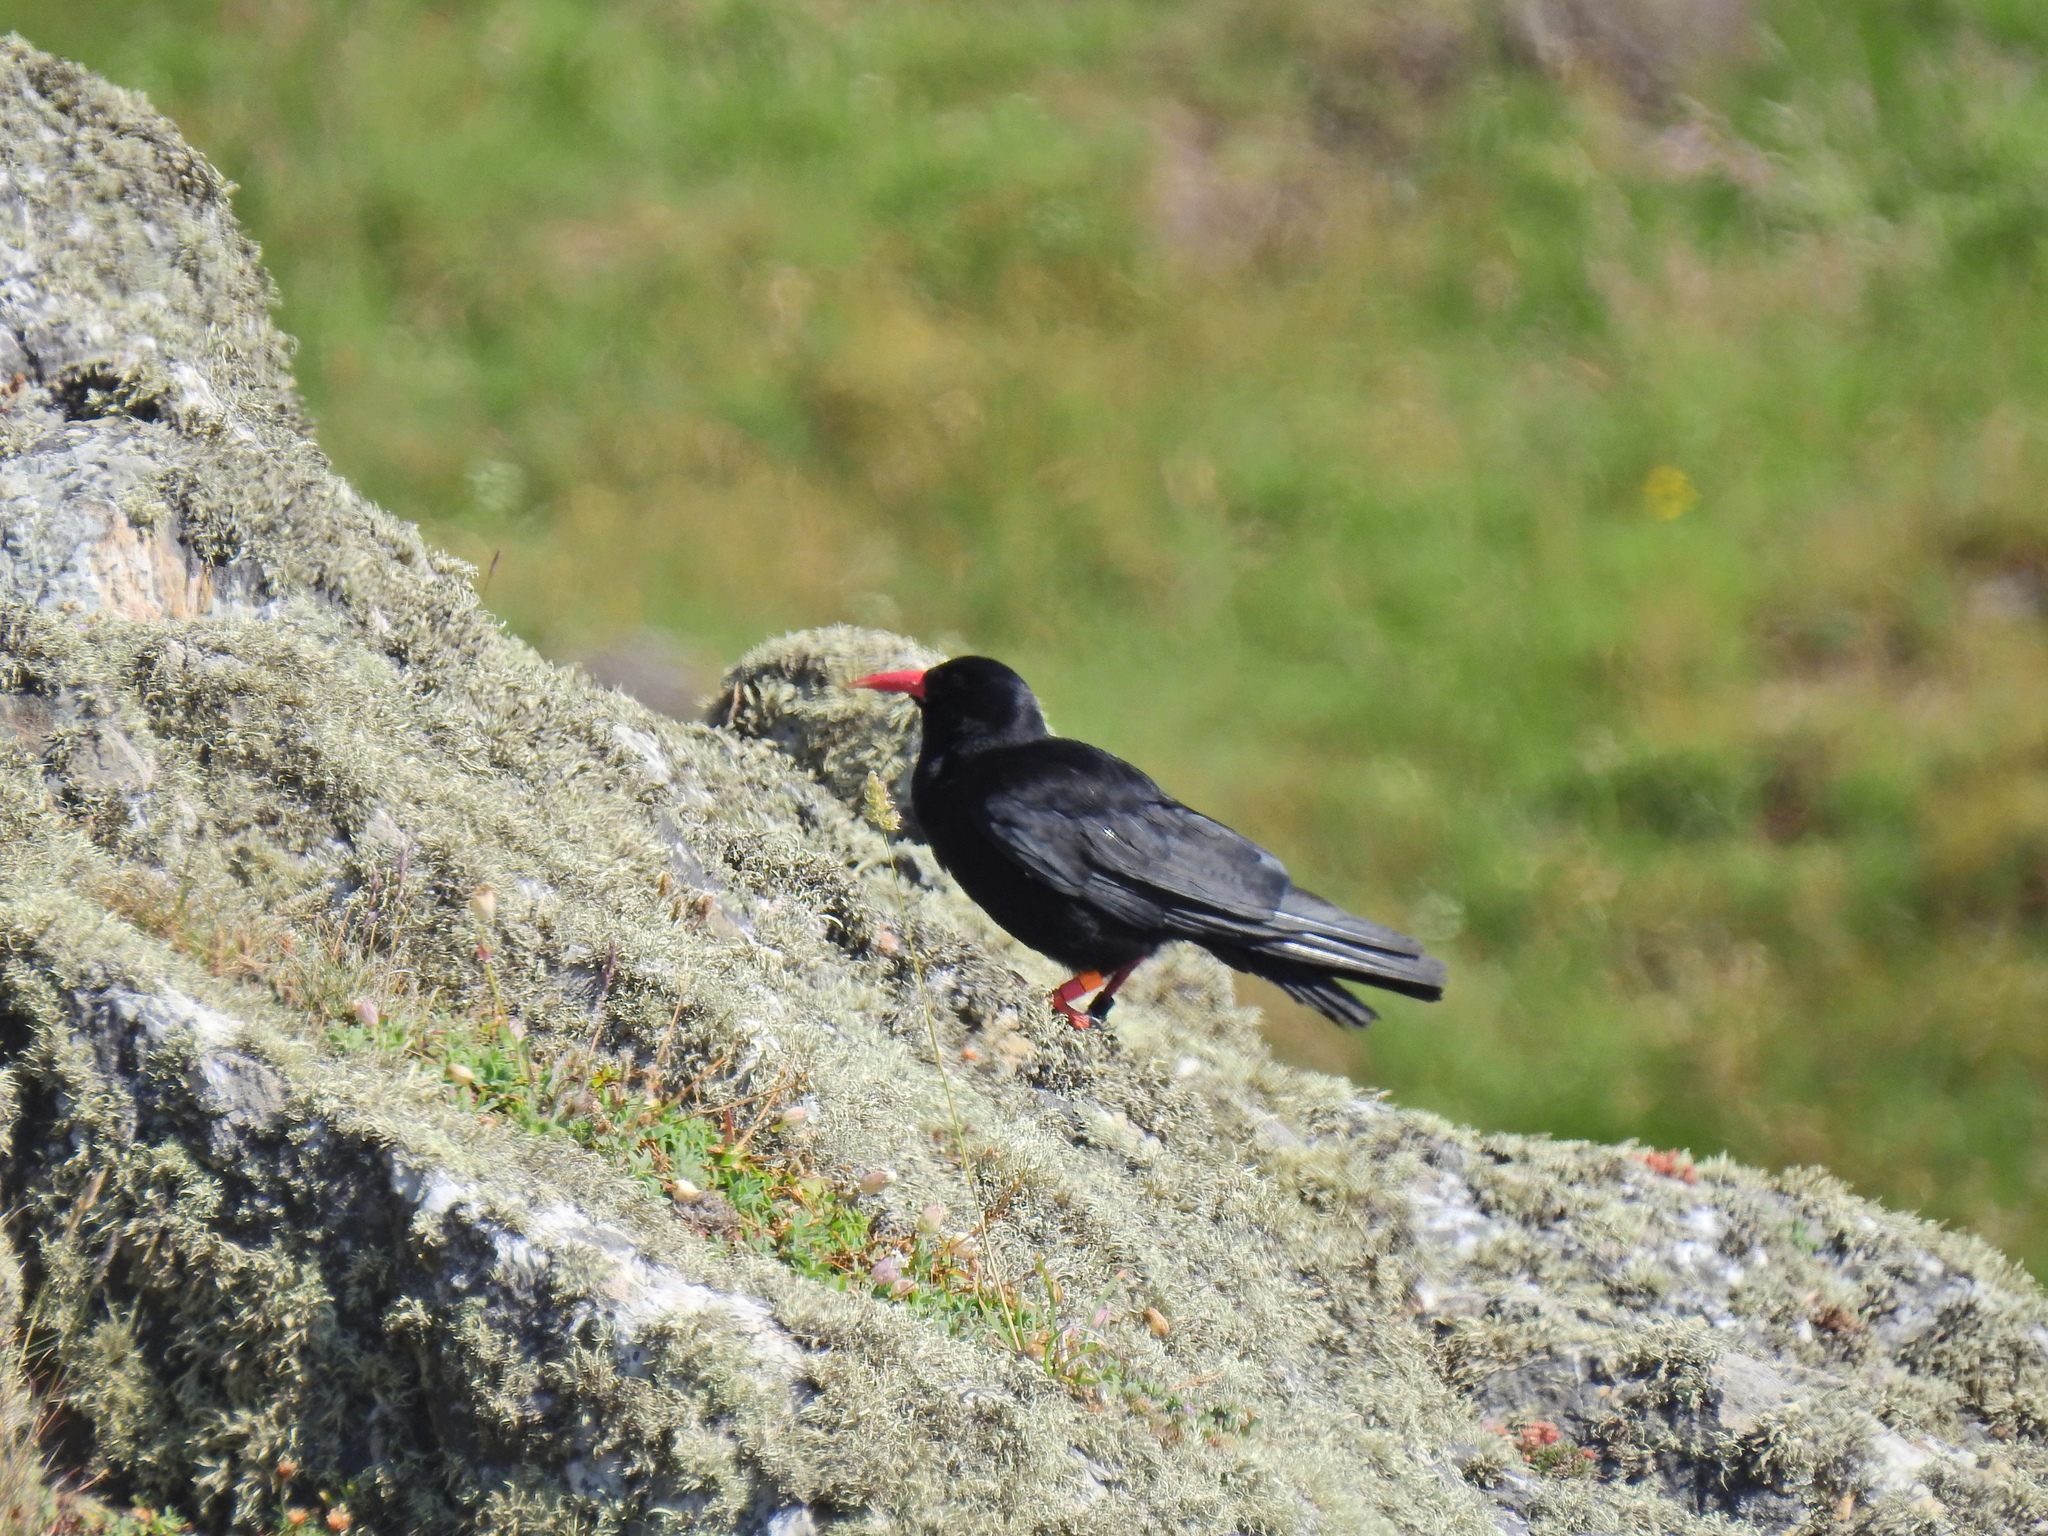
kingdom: Animalia
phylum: Chordata
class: Aves
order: Passeriformes
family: Corvidae
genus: Pyrrhocorax
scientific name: Pyrrhocorax pyrrhocorax
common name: Red-billed chough
